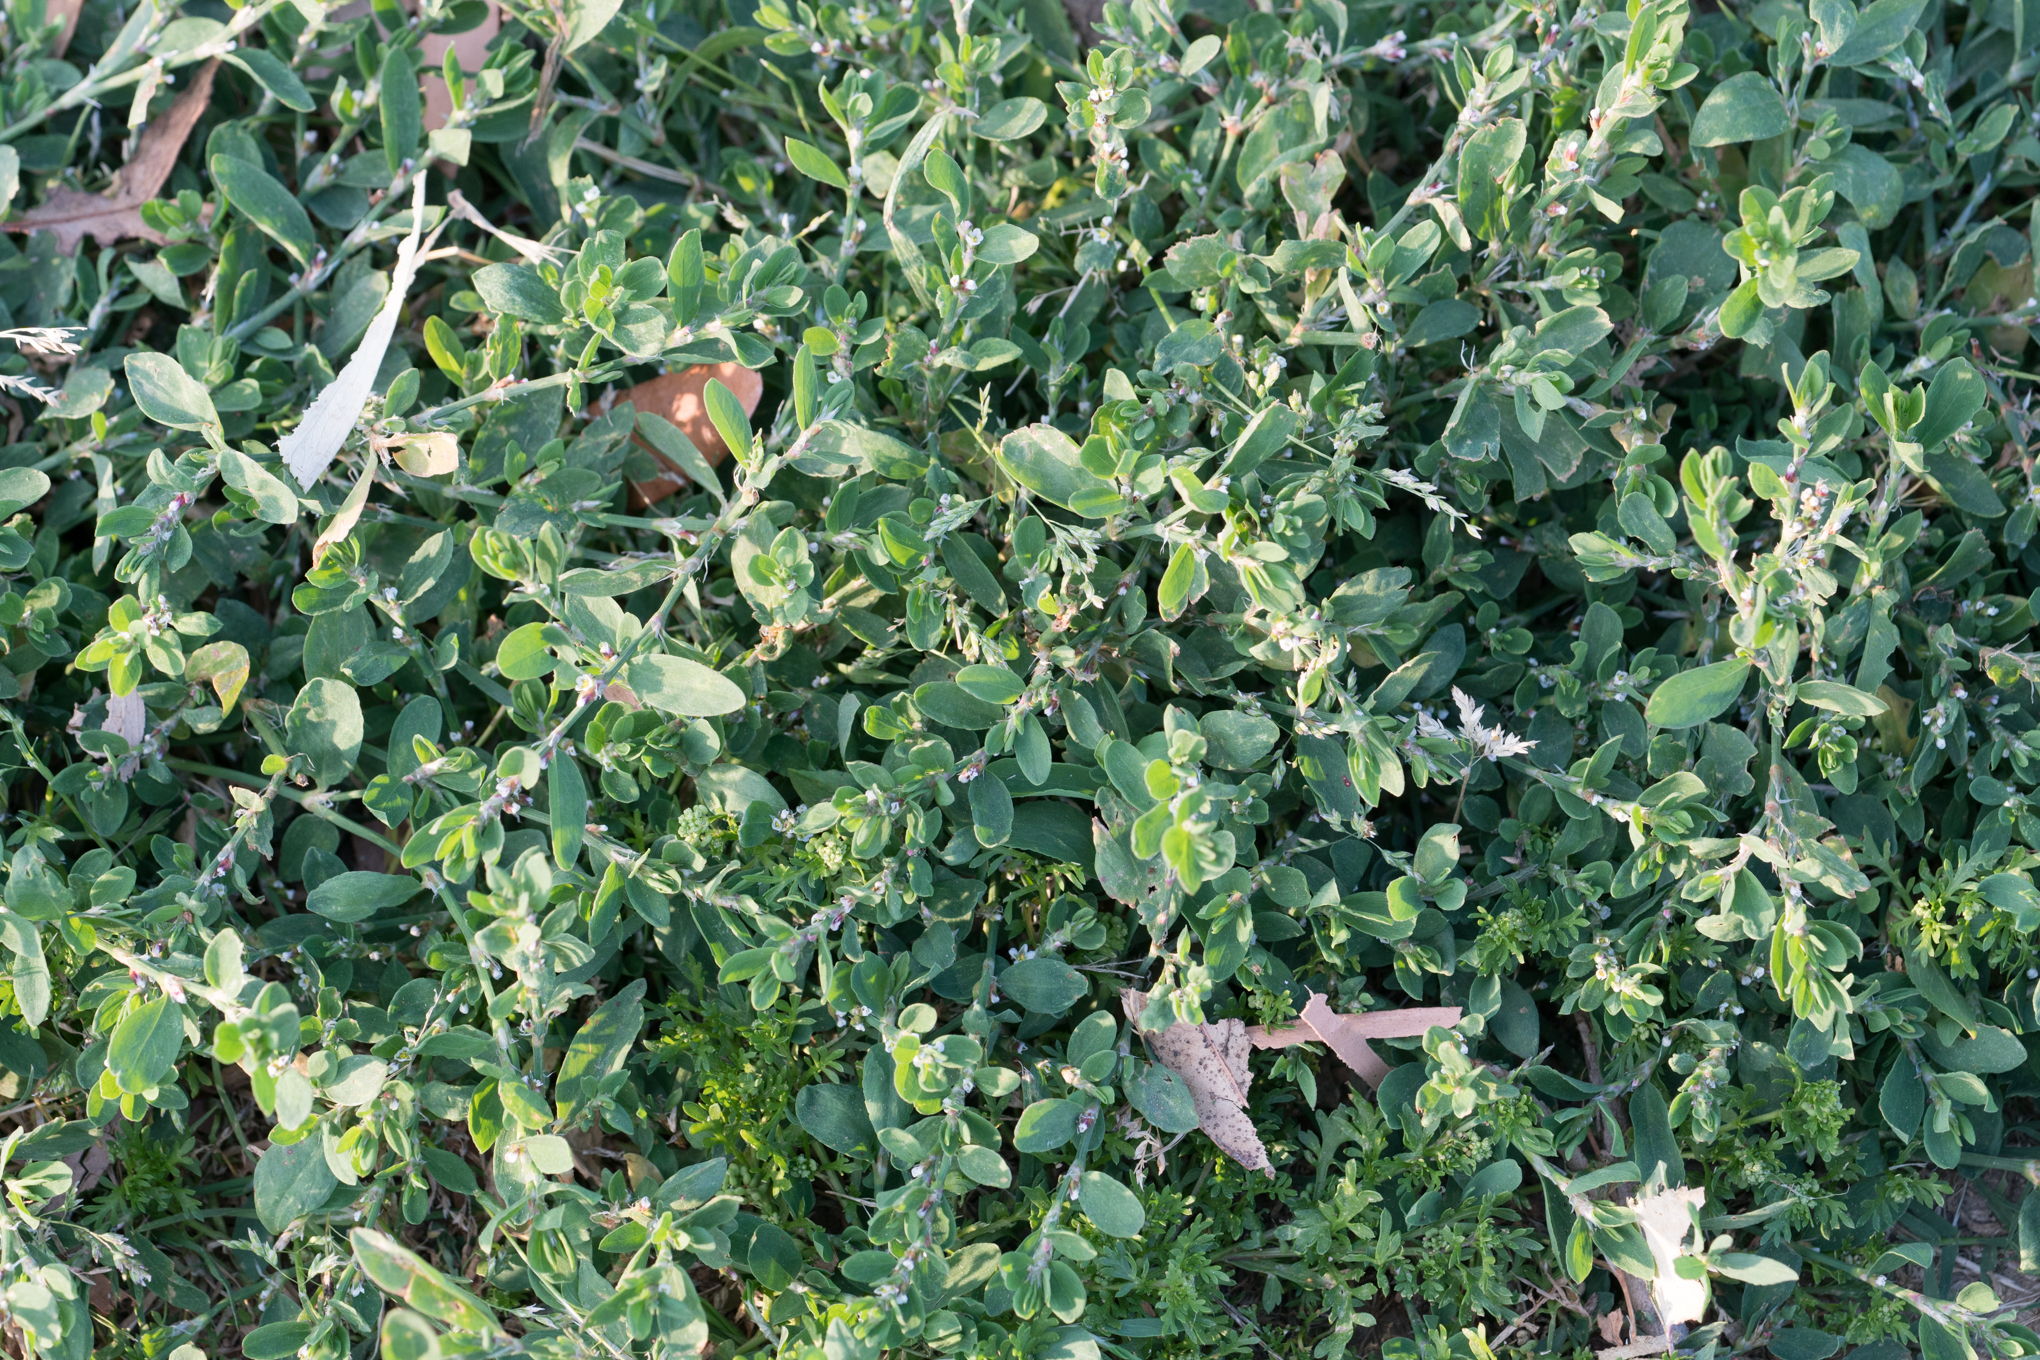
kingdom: Plantae
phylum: Tracheophyta
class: Magnoliopsida
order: Caryophyllales
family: Polygonaceae
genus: Polygonum
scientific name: Polygonum aviculare
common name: Prostrate knotweed
